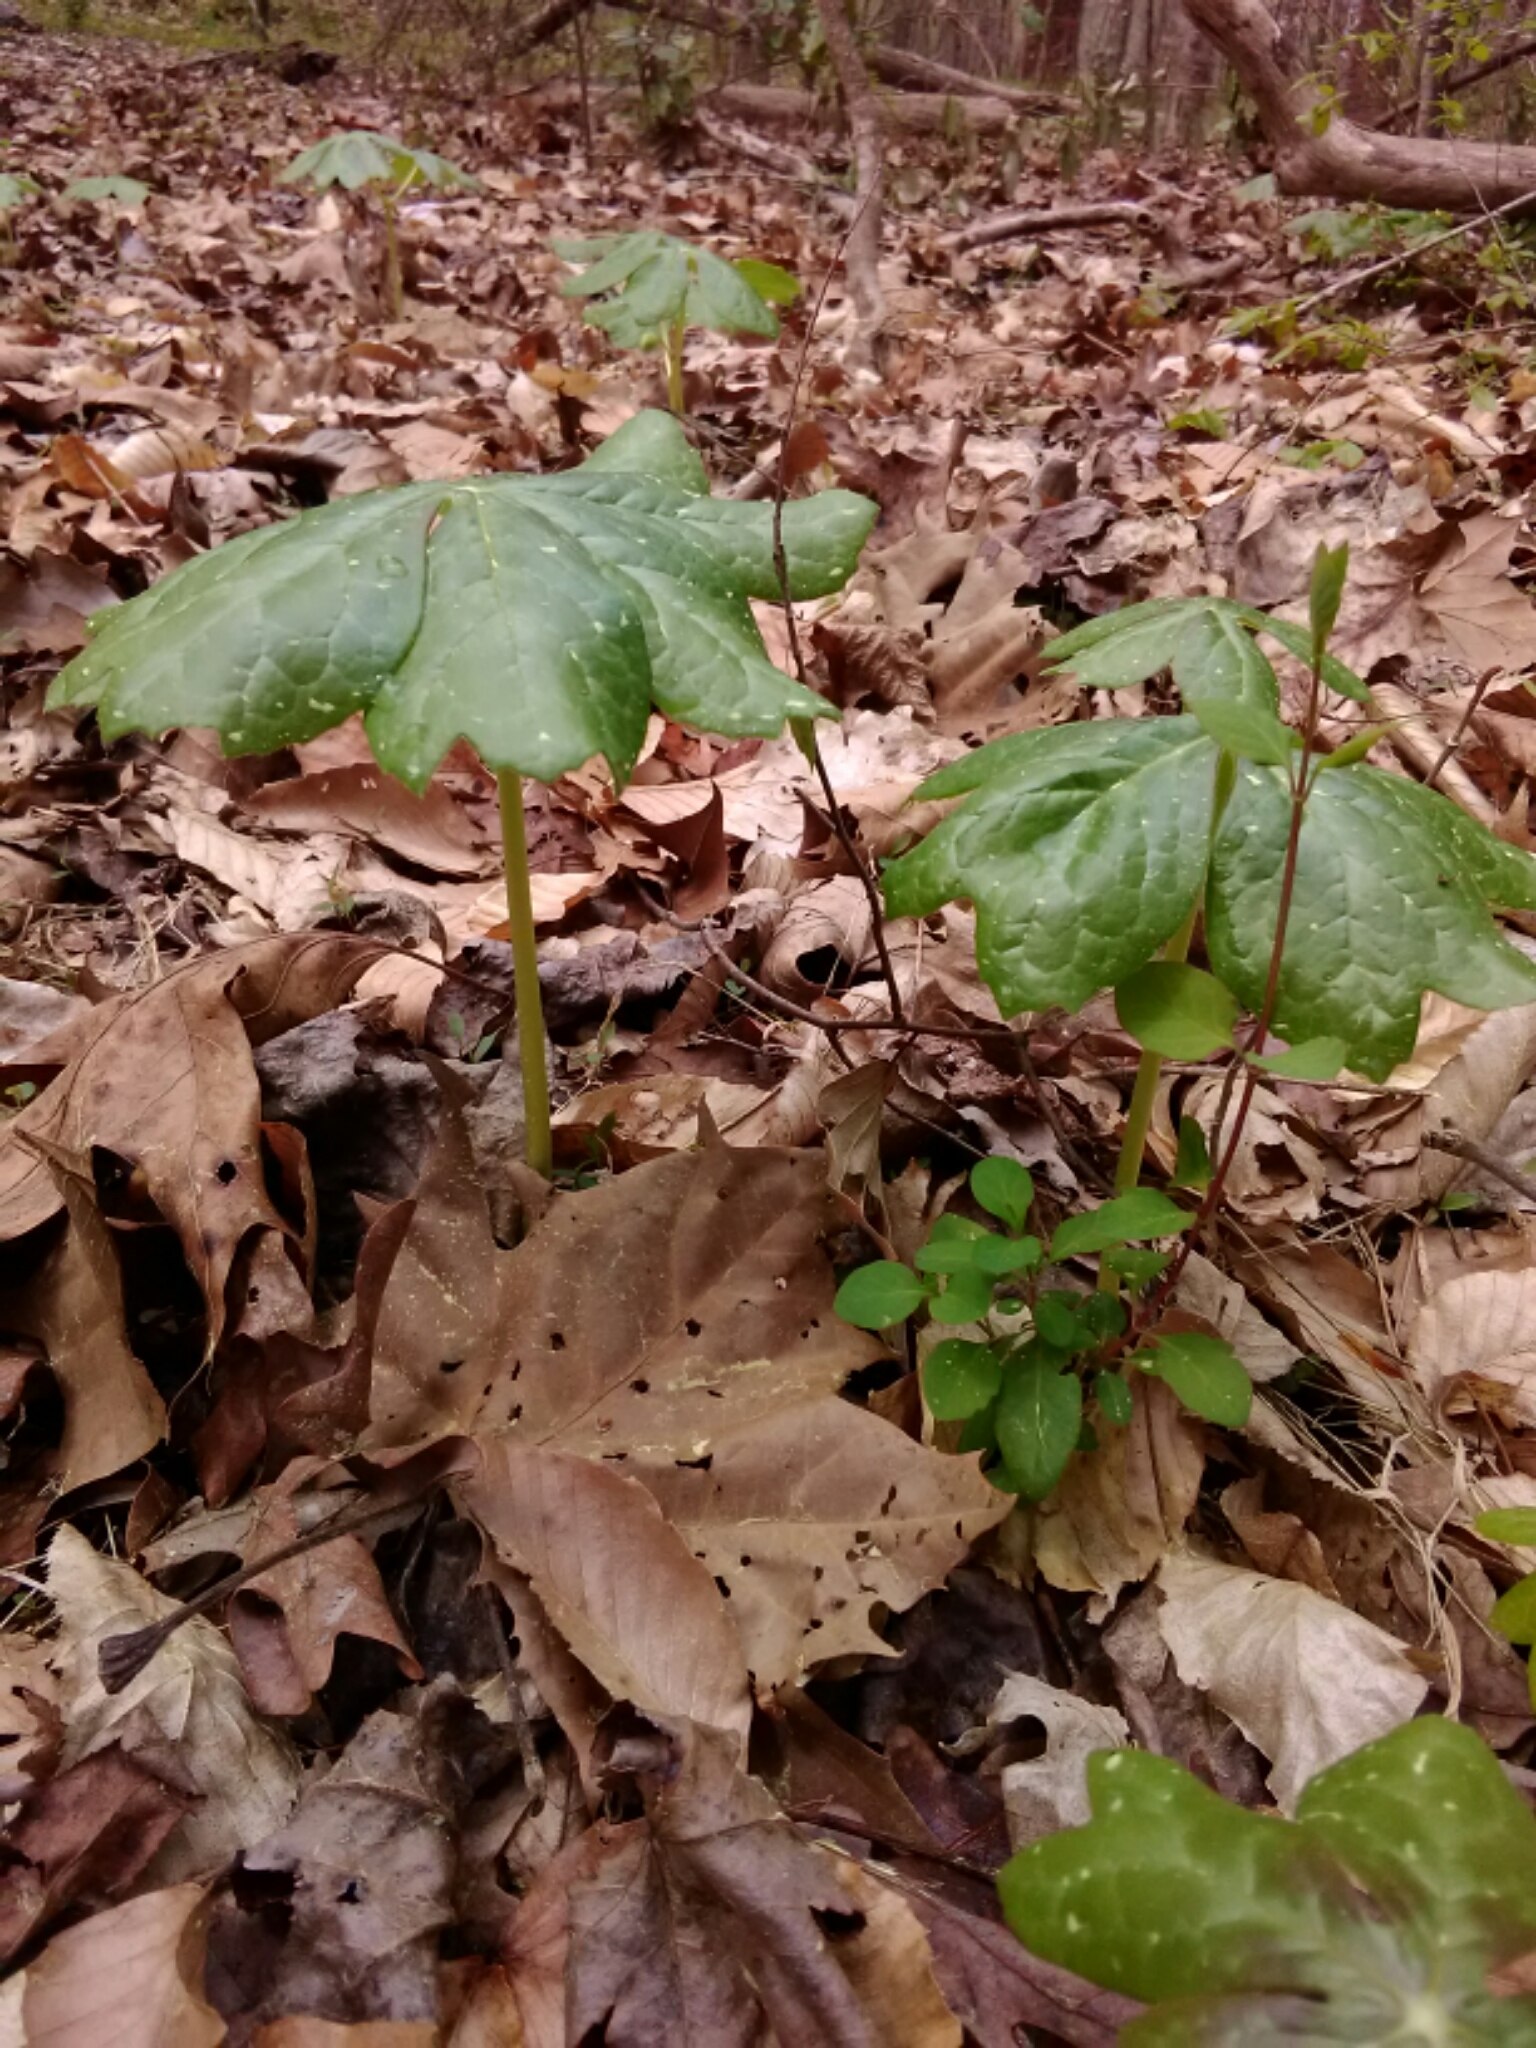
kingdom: Plantae
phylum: Tracheophyta
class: Magnoliopsida
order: Ranunculales
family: Berberidaceae
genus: Podophyllum
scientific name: Podophyllum peltatum
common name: Wild mandrake
